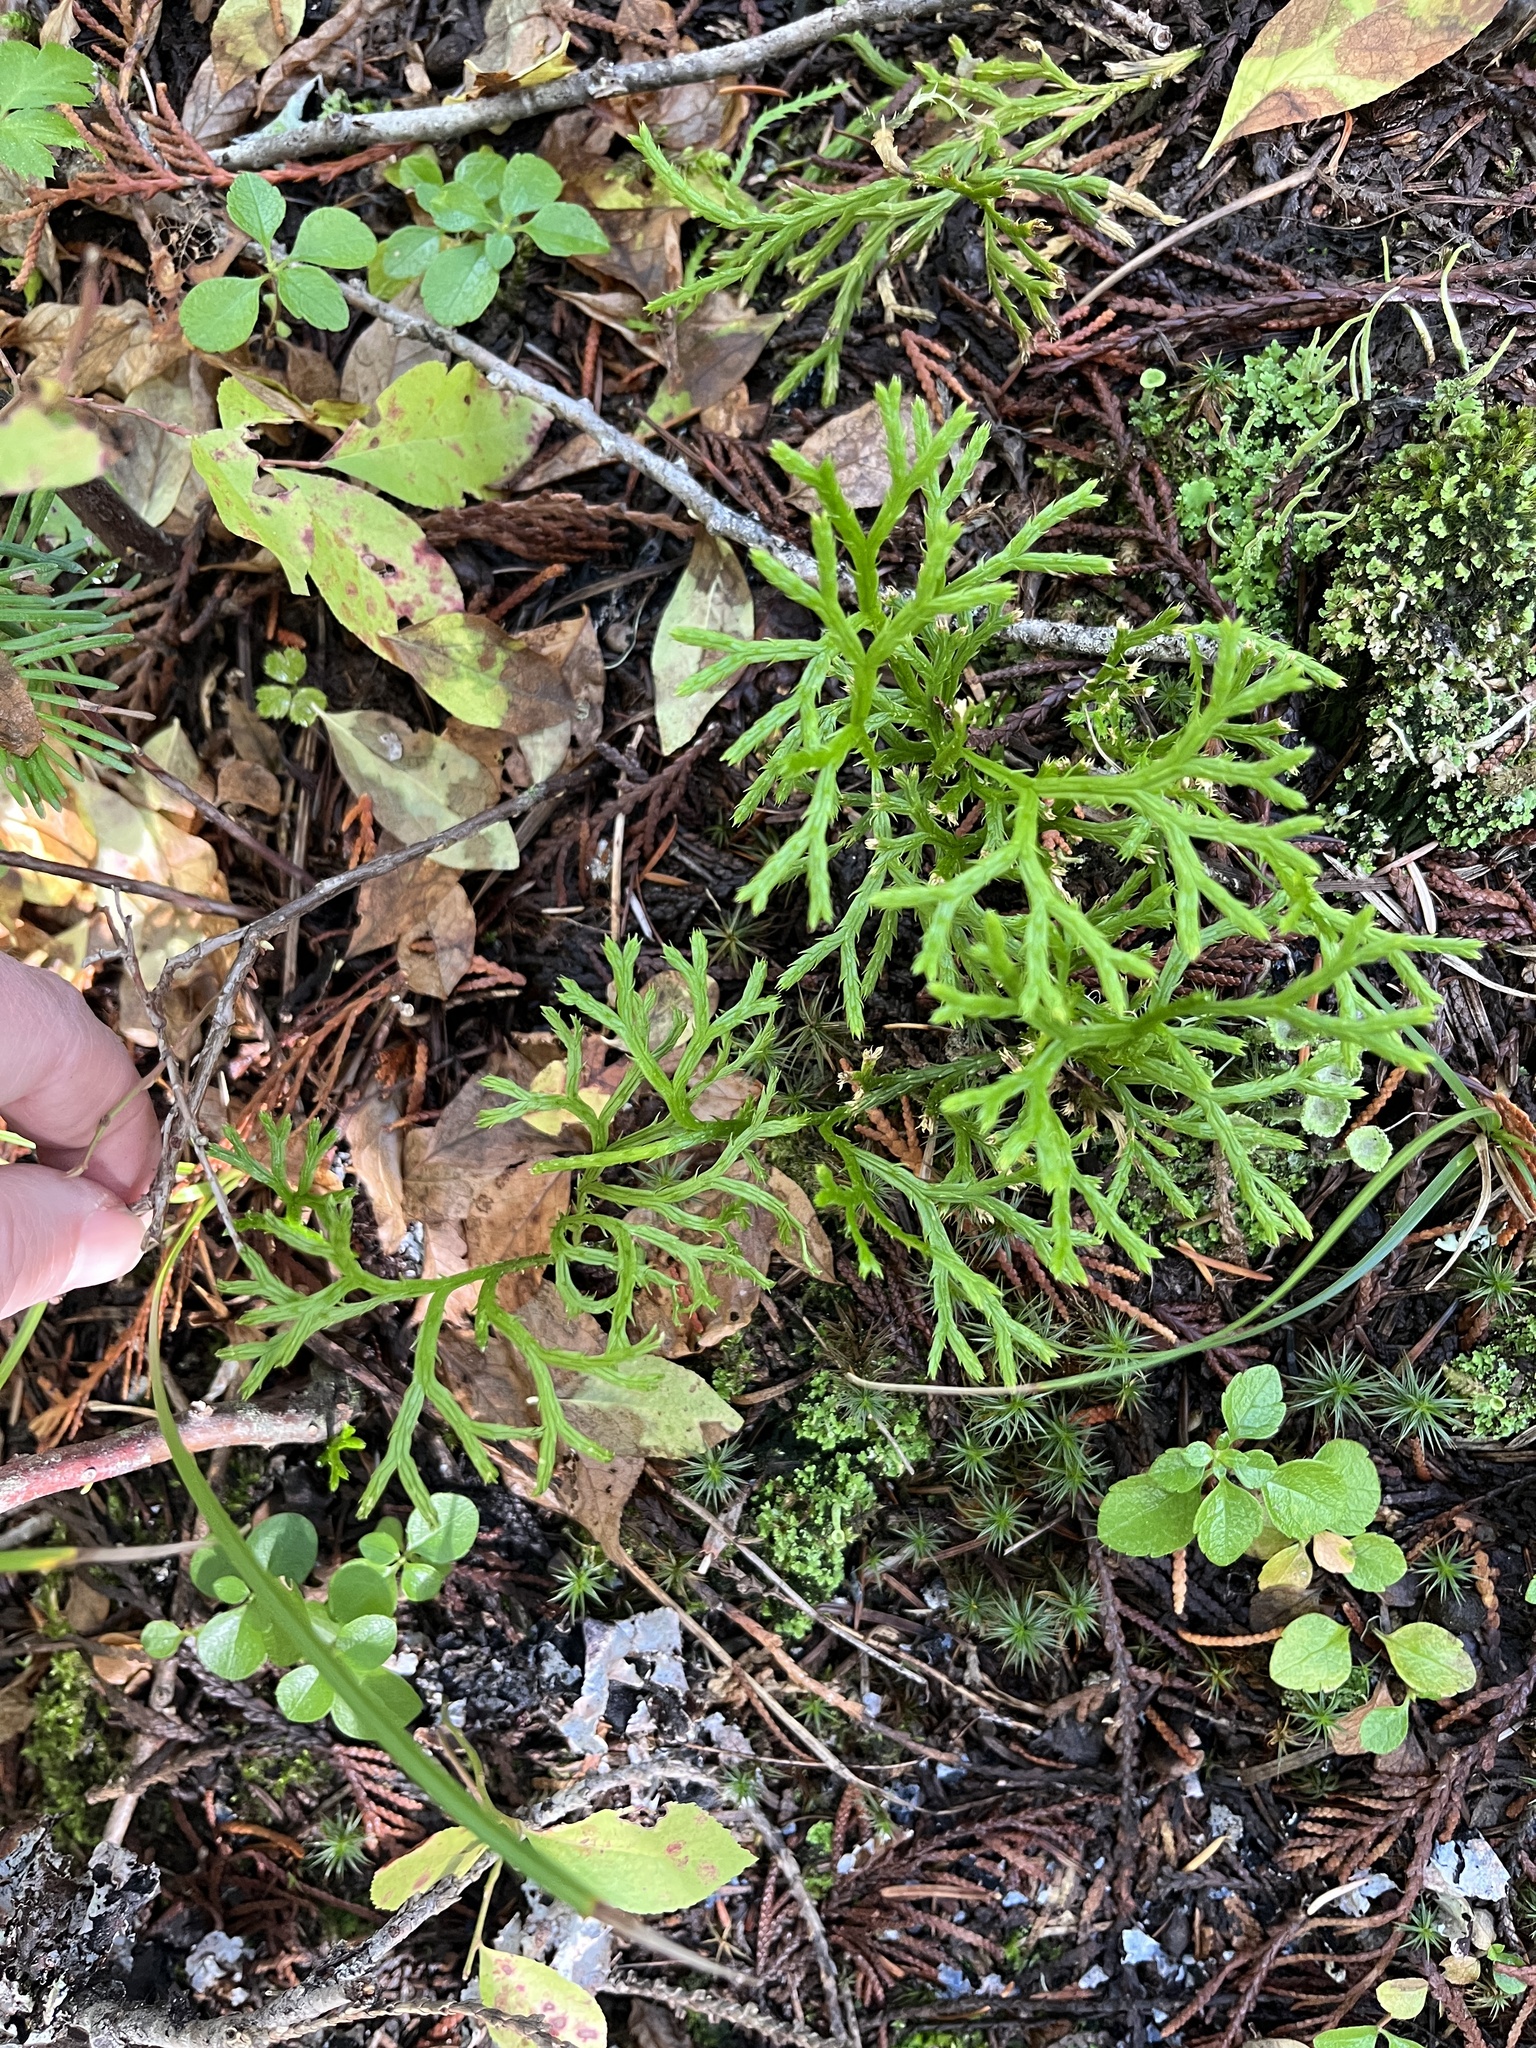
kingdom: Plantae
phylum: Tracheophyta
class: Lycopodiopsida
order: Lycopodiales
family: Lycopodiaceae
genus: Diphasiastrum
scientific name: Diphasiastrum complanatum
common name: Northern running-pine
